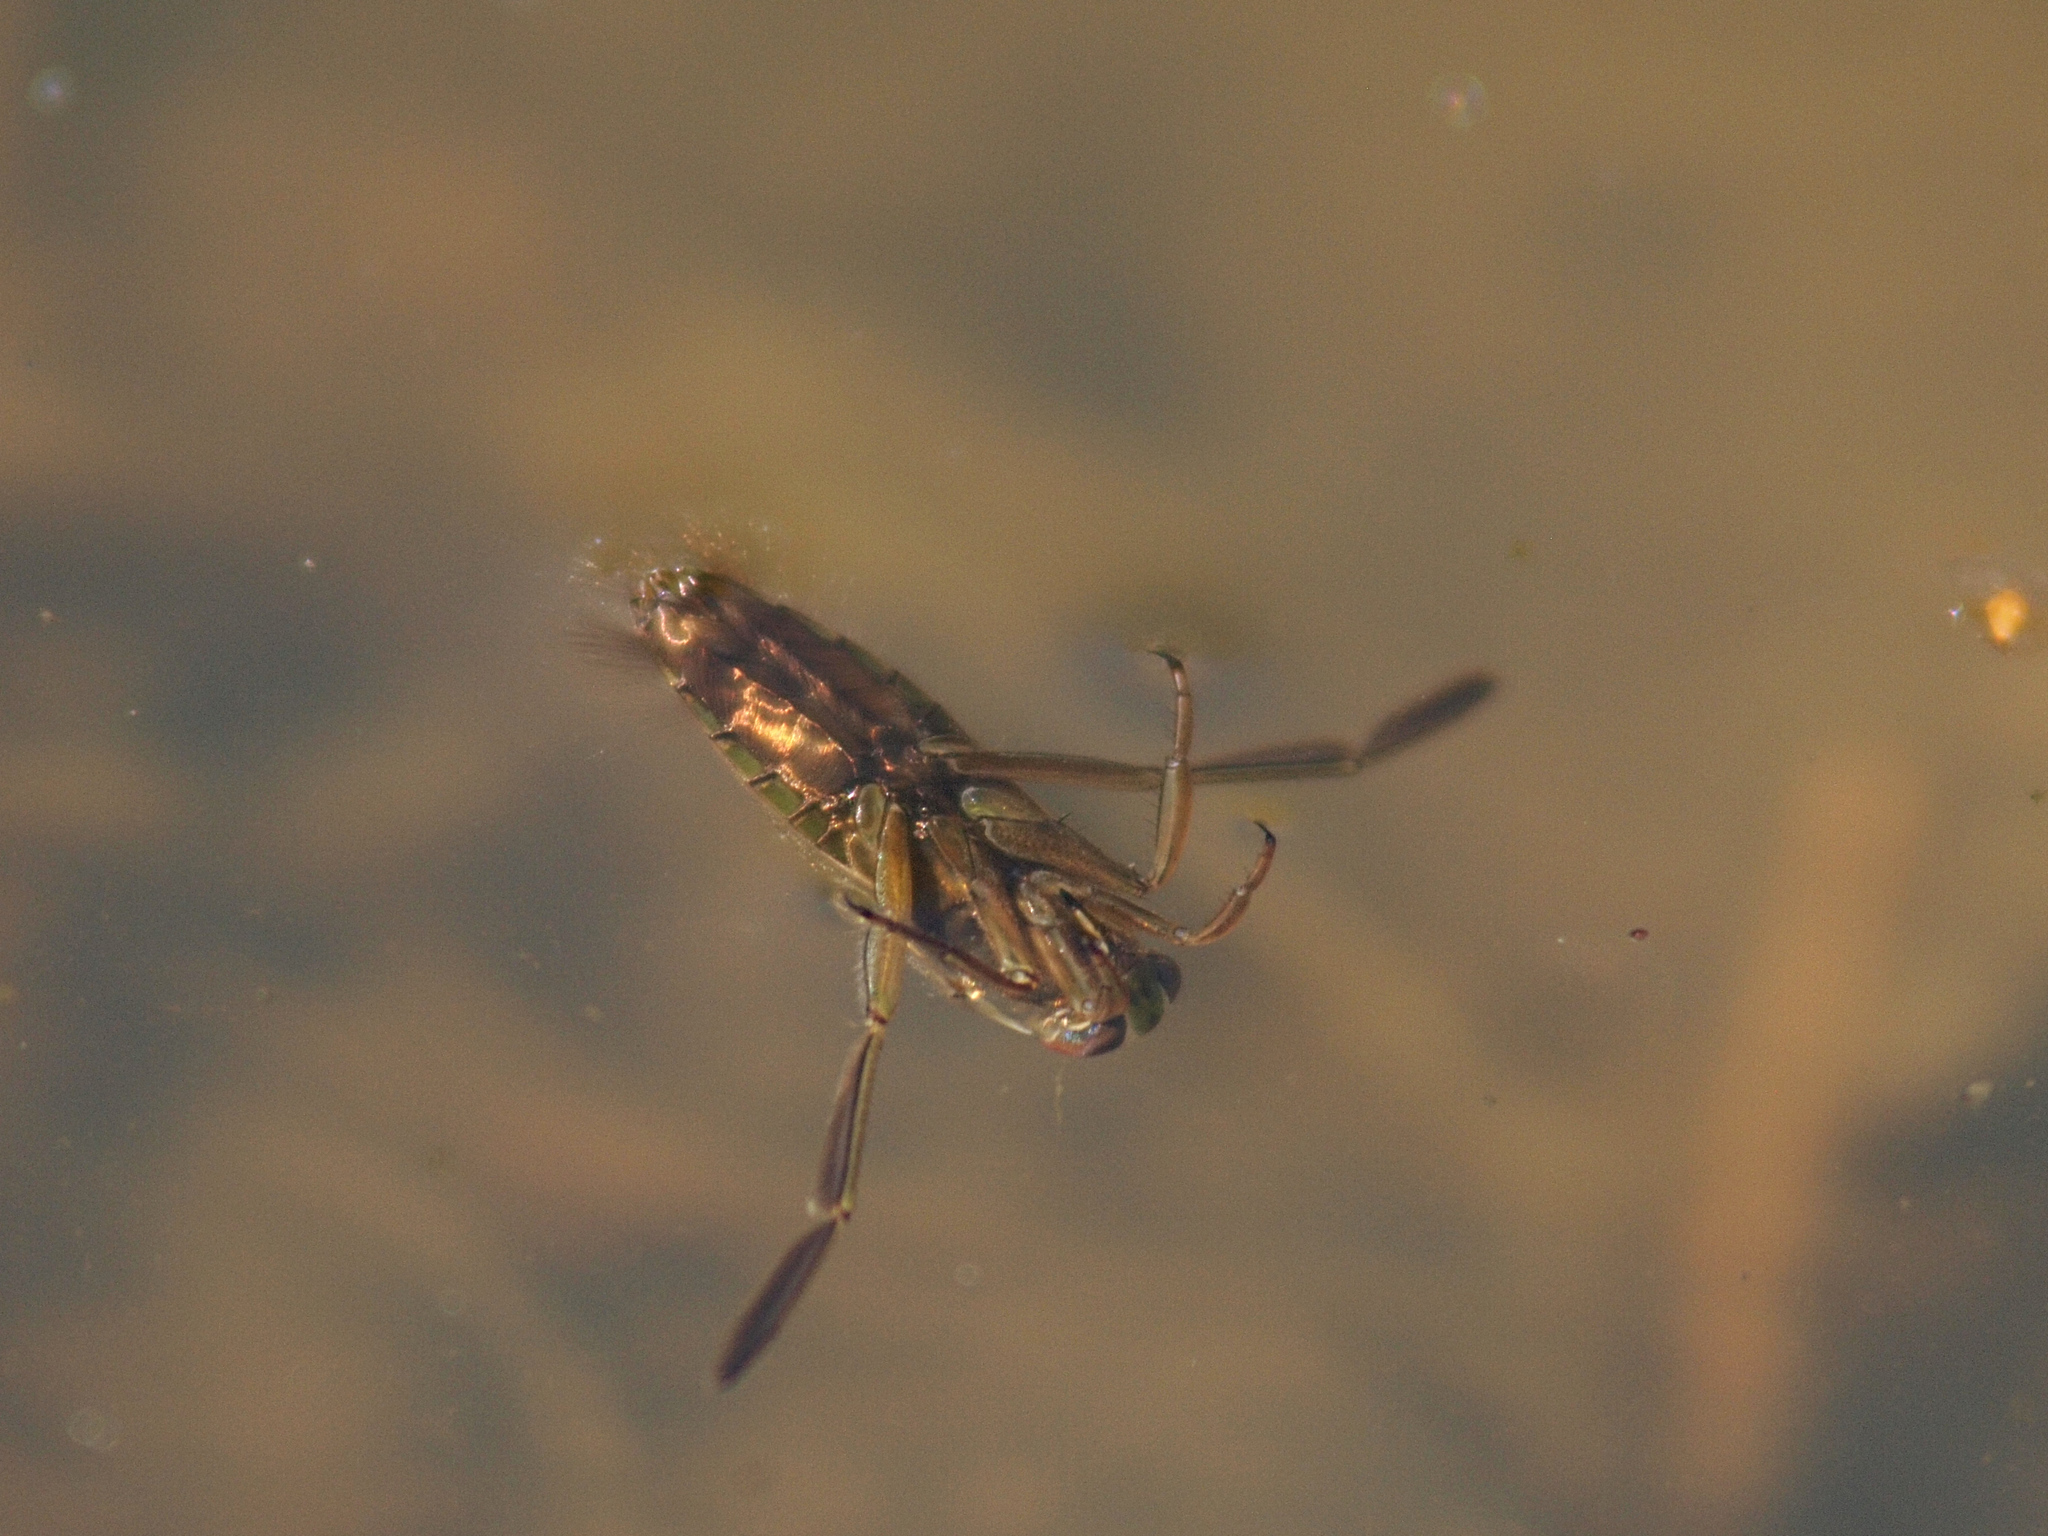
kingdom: Animalia
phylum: Arthropoda
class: Insecta
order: Hemiptera
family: Notonectidae
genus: Notonecta
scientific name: Notonecta
